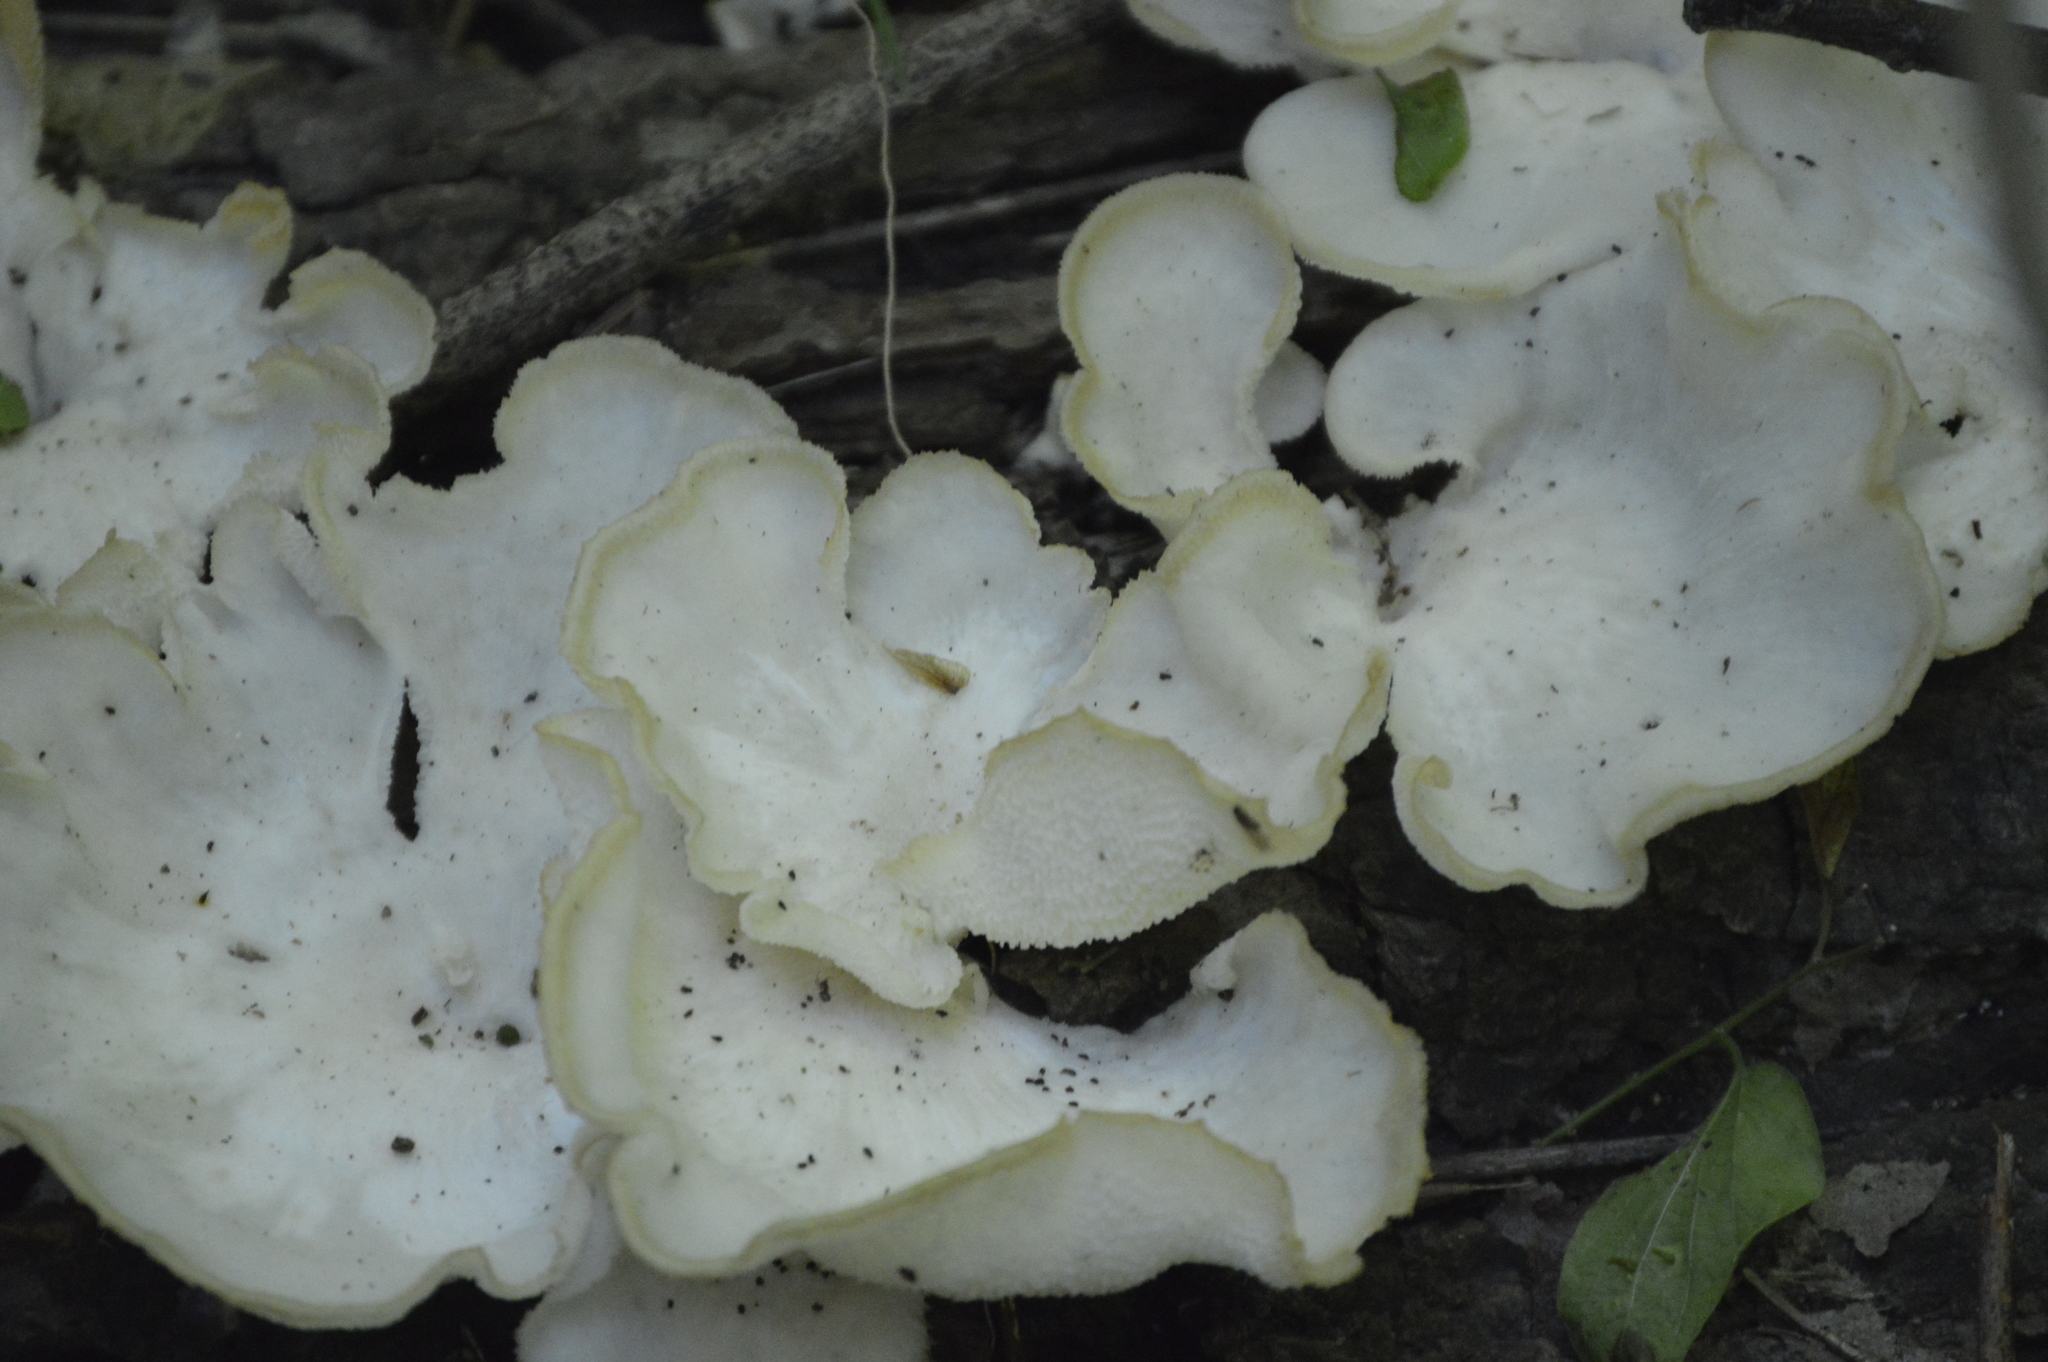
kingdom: Fungi
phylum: Basidiomycota
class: Agaricomycetes
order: Polyporales
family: Polyporaceae
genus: Favolus
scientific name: Favolus tenuiculus
